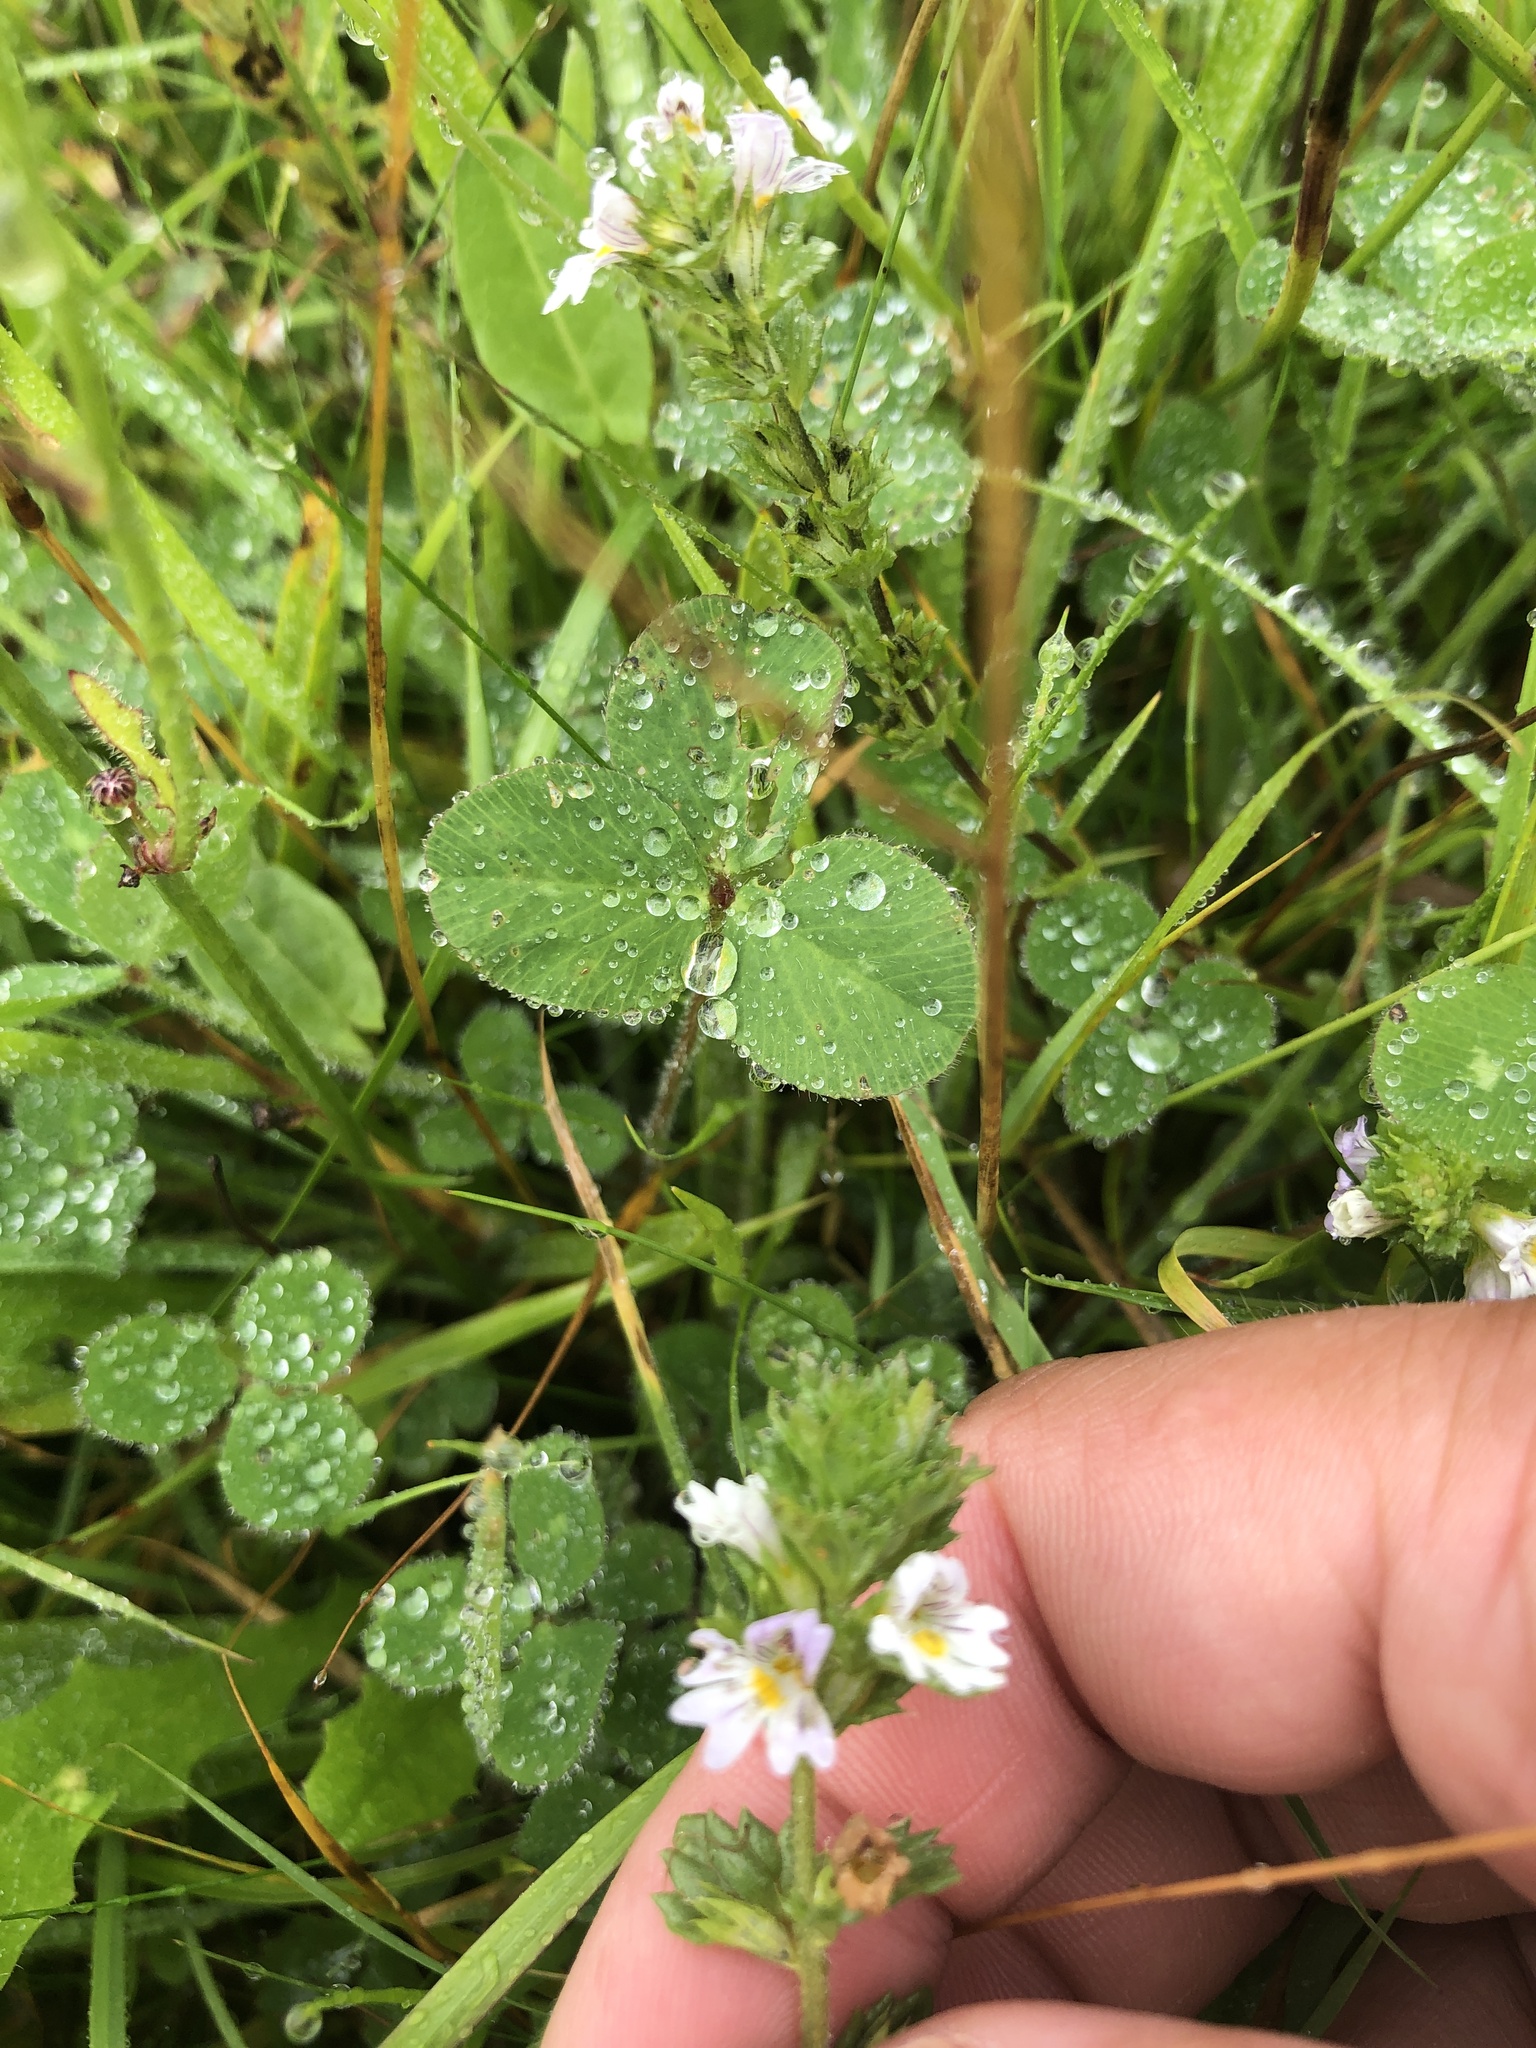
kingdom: Plantae
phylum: Tracheophyta
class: Magnoliopsida
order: Lamiales
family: Orobanchaceae
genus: Euphrasia
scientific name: Euphrasia nemorosa
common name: Common eyebright
